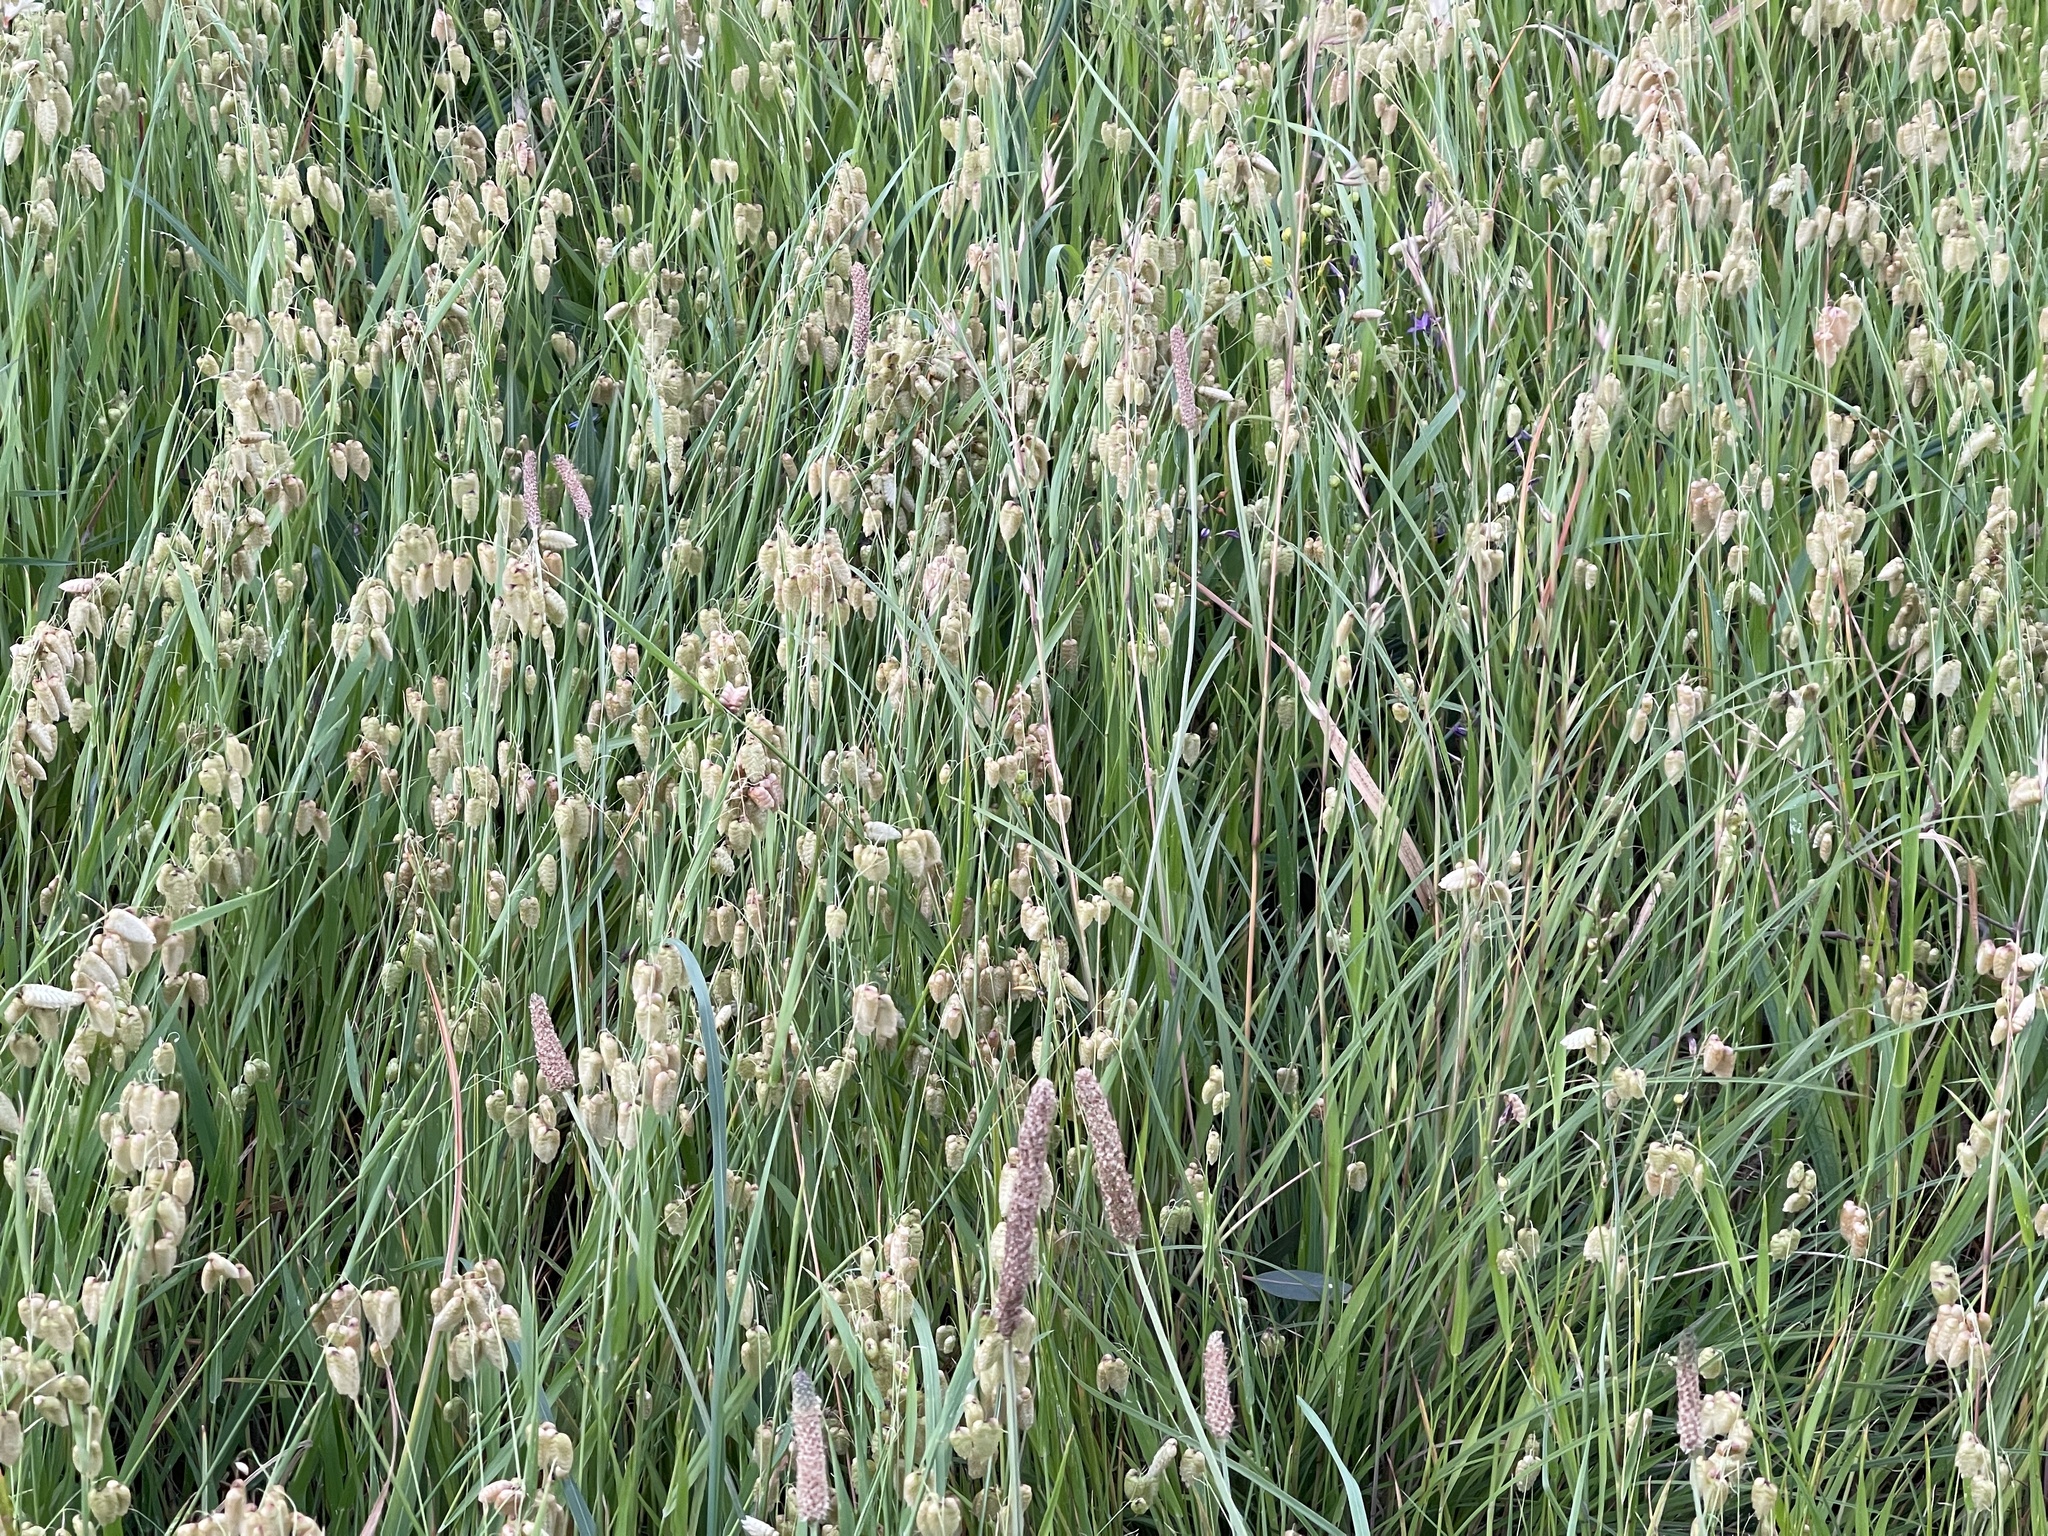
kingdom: Plantae
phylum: Tracheophyta
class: Liliopsida
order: Poales
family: Poaceae
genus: Briza
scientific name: Briza maxima
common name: Big quakinggrass
